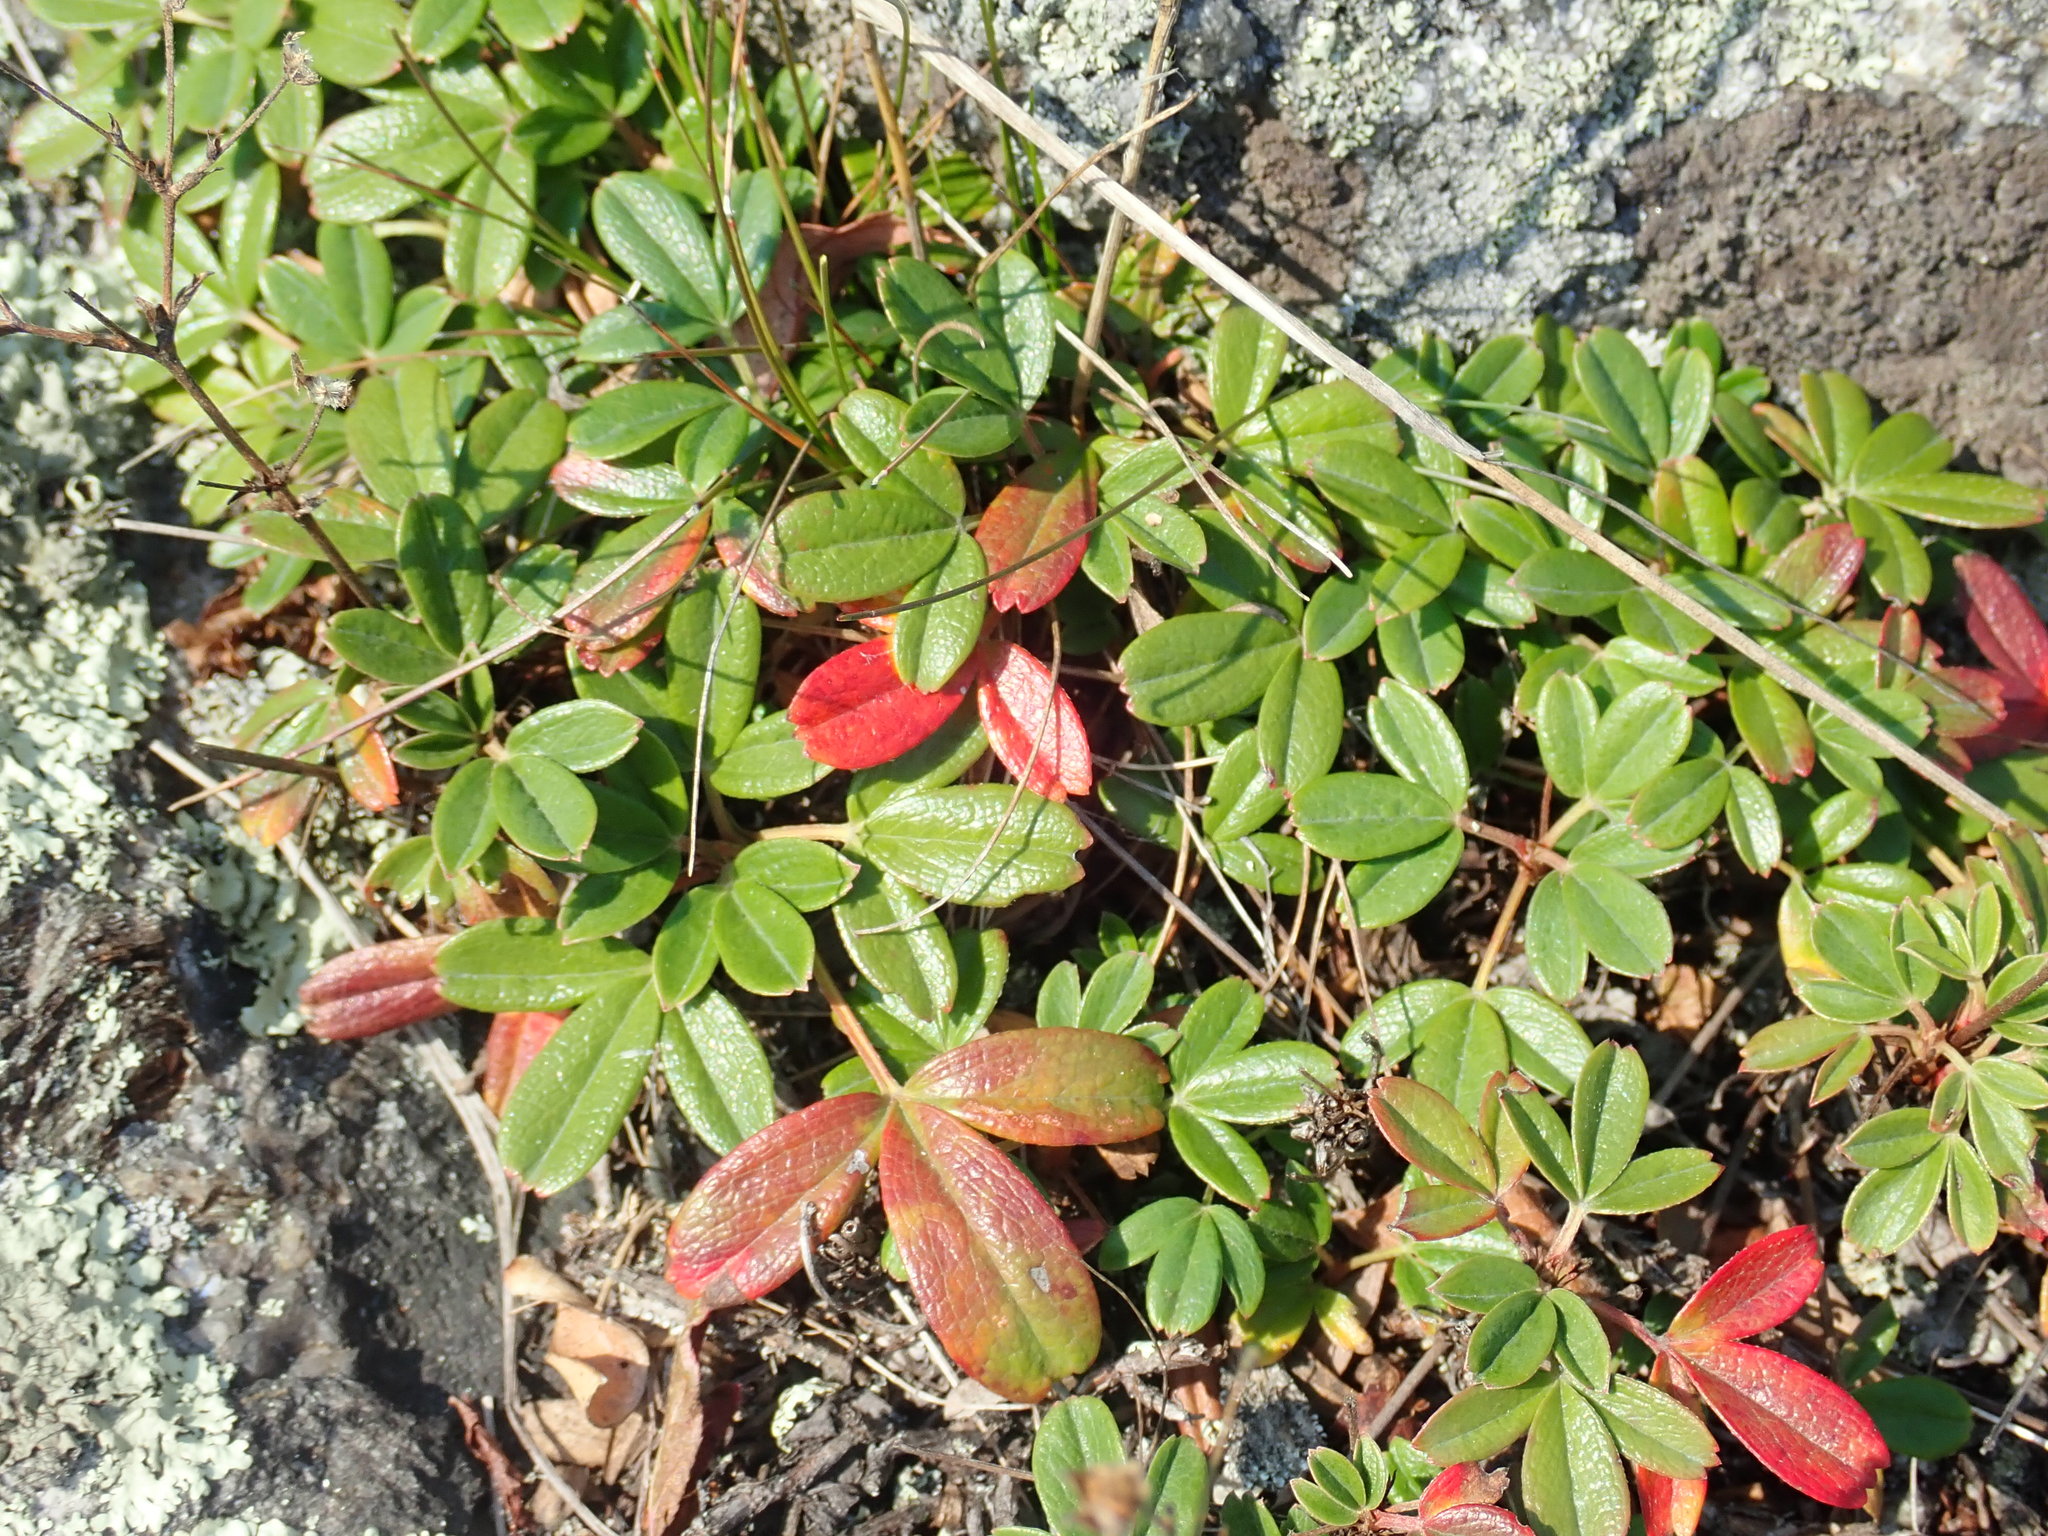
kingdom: Plantae
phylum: Tracheophyta
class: Magnoliopsida
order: Rosales
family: Rosaceae
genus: Sibbaldia
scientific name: Sibbaldia tridentata
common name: Three-toothed cinquefoil
